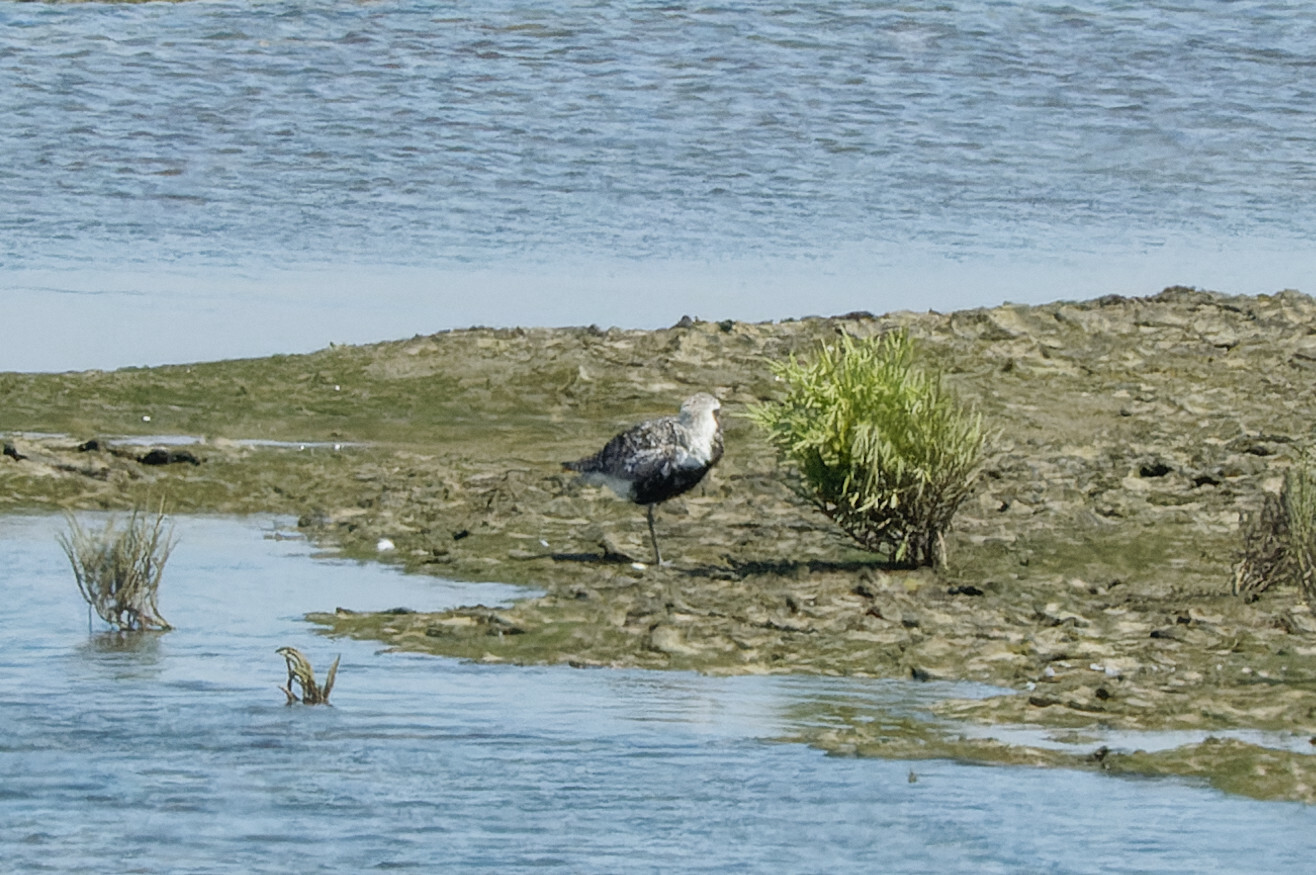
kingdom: Animalia
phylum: Chordata
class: Aves
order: Charadriiformes
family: Charadriidae
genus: Pluvialis
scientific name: Pluvialis squatarola
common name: Grey plover
